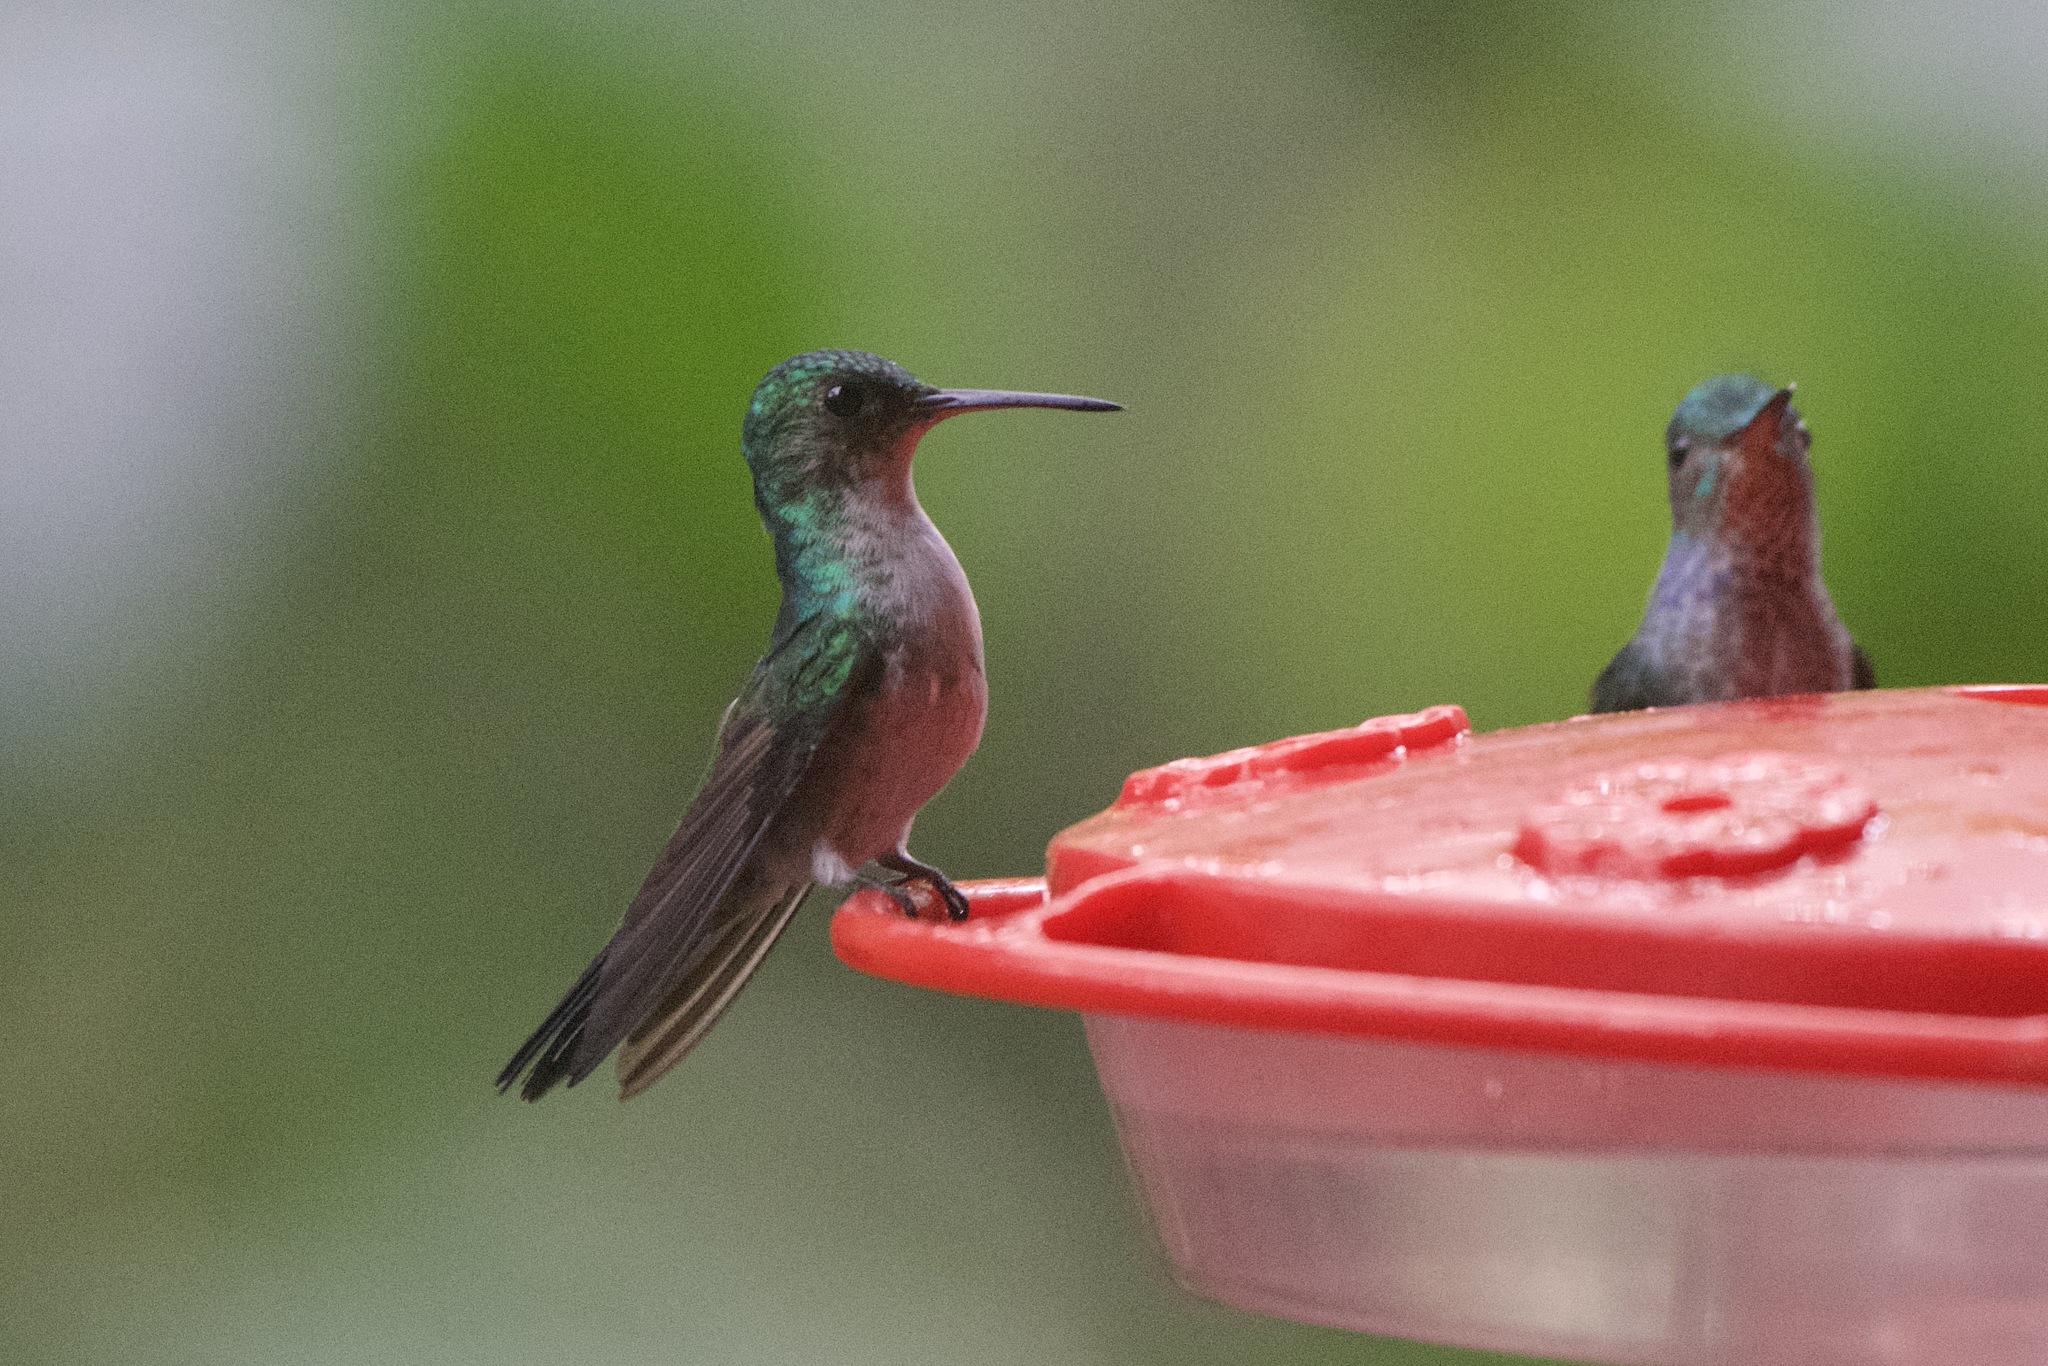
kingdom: Animalia
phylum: Chordata
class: Aves
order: Apodiformes
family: Trochilidae
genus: Polyerata
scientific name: Polyerata amabilis
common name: Blue-chested hummingbird
